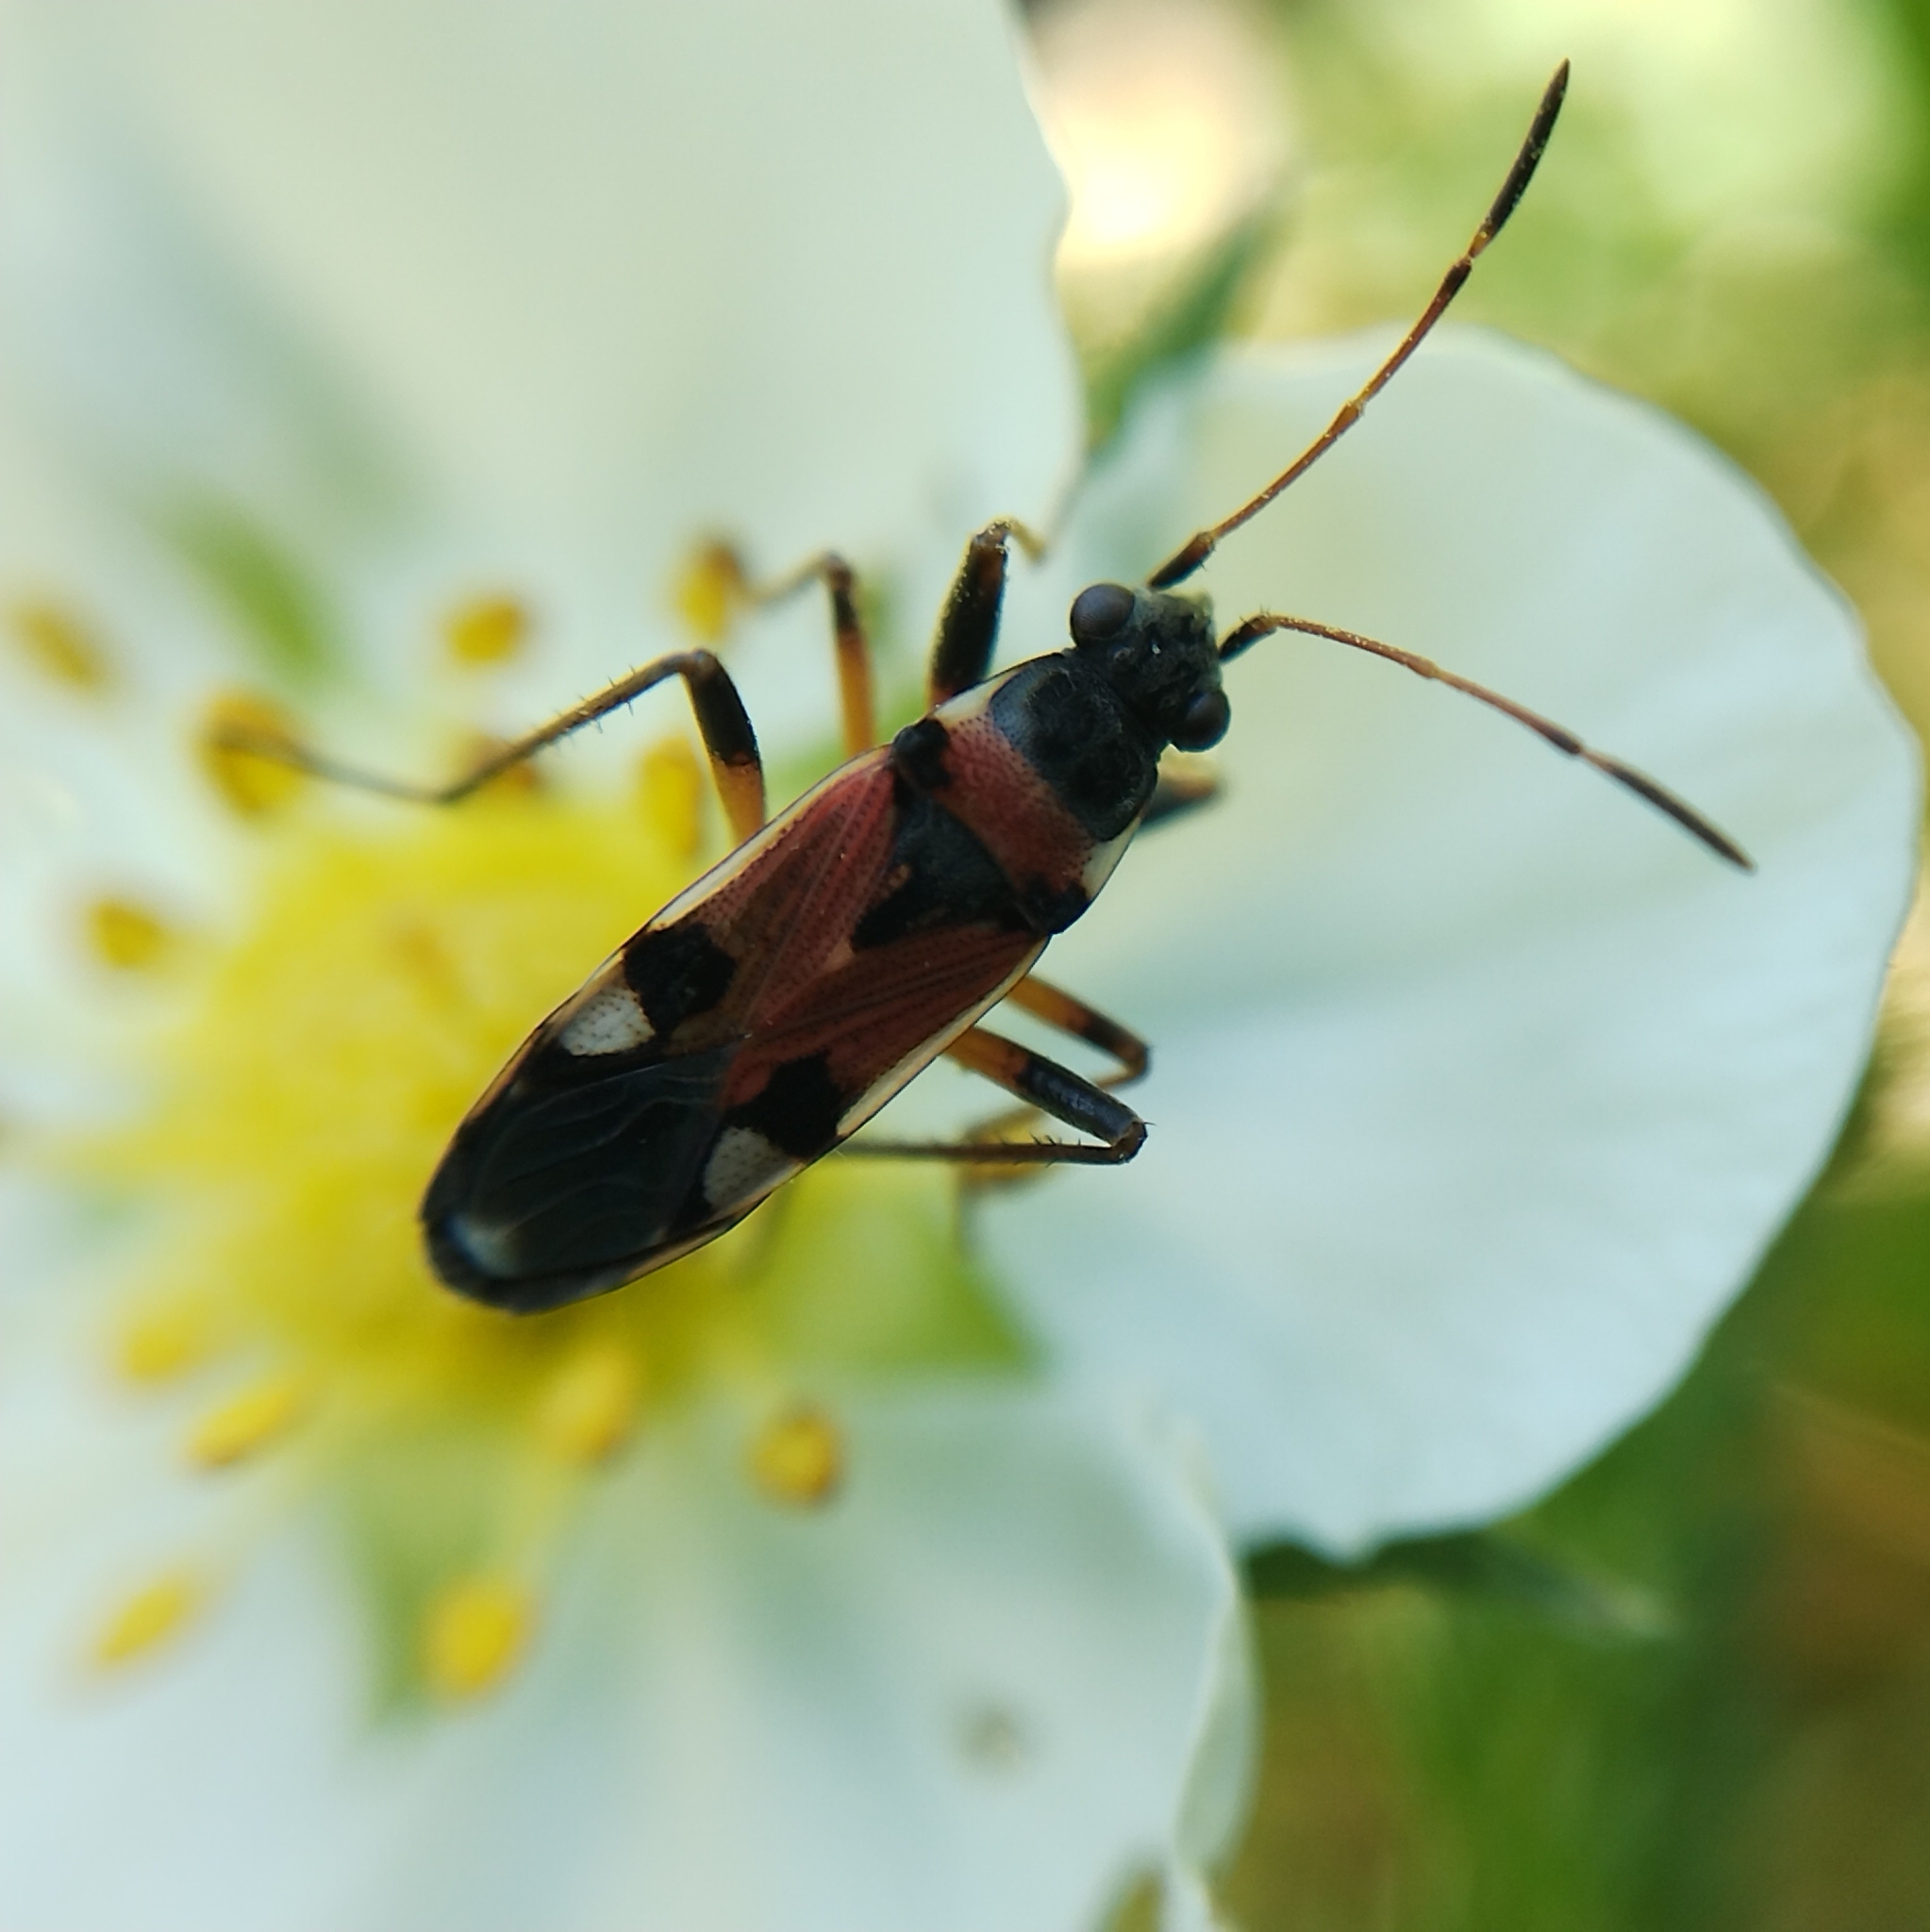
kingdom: Animalia
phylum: Arthropoda
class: Insecta
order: Hemiptera
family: Rhyparochromidae
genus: Beosus
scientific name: Beosus quadripunctatus
